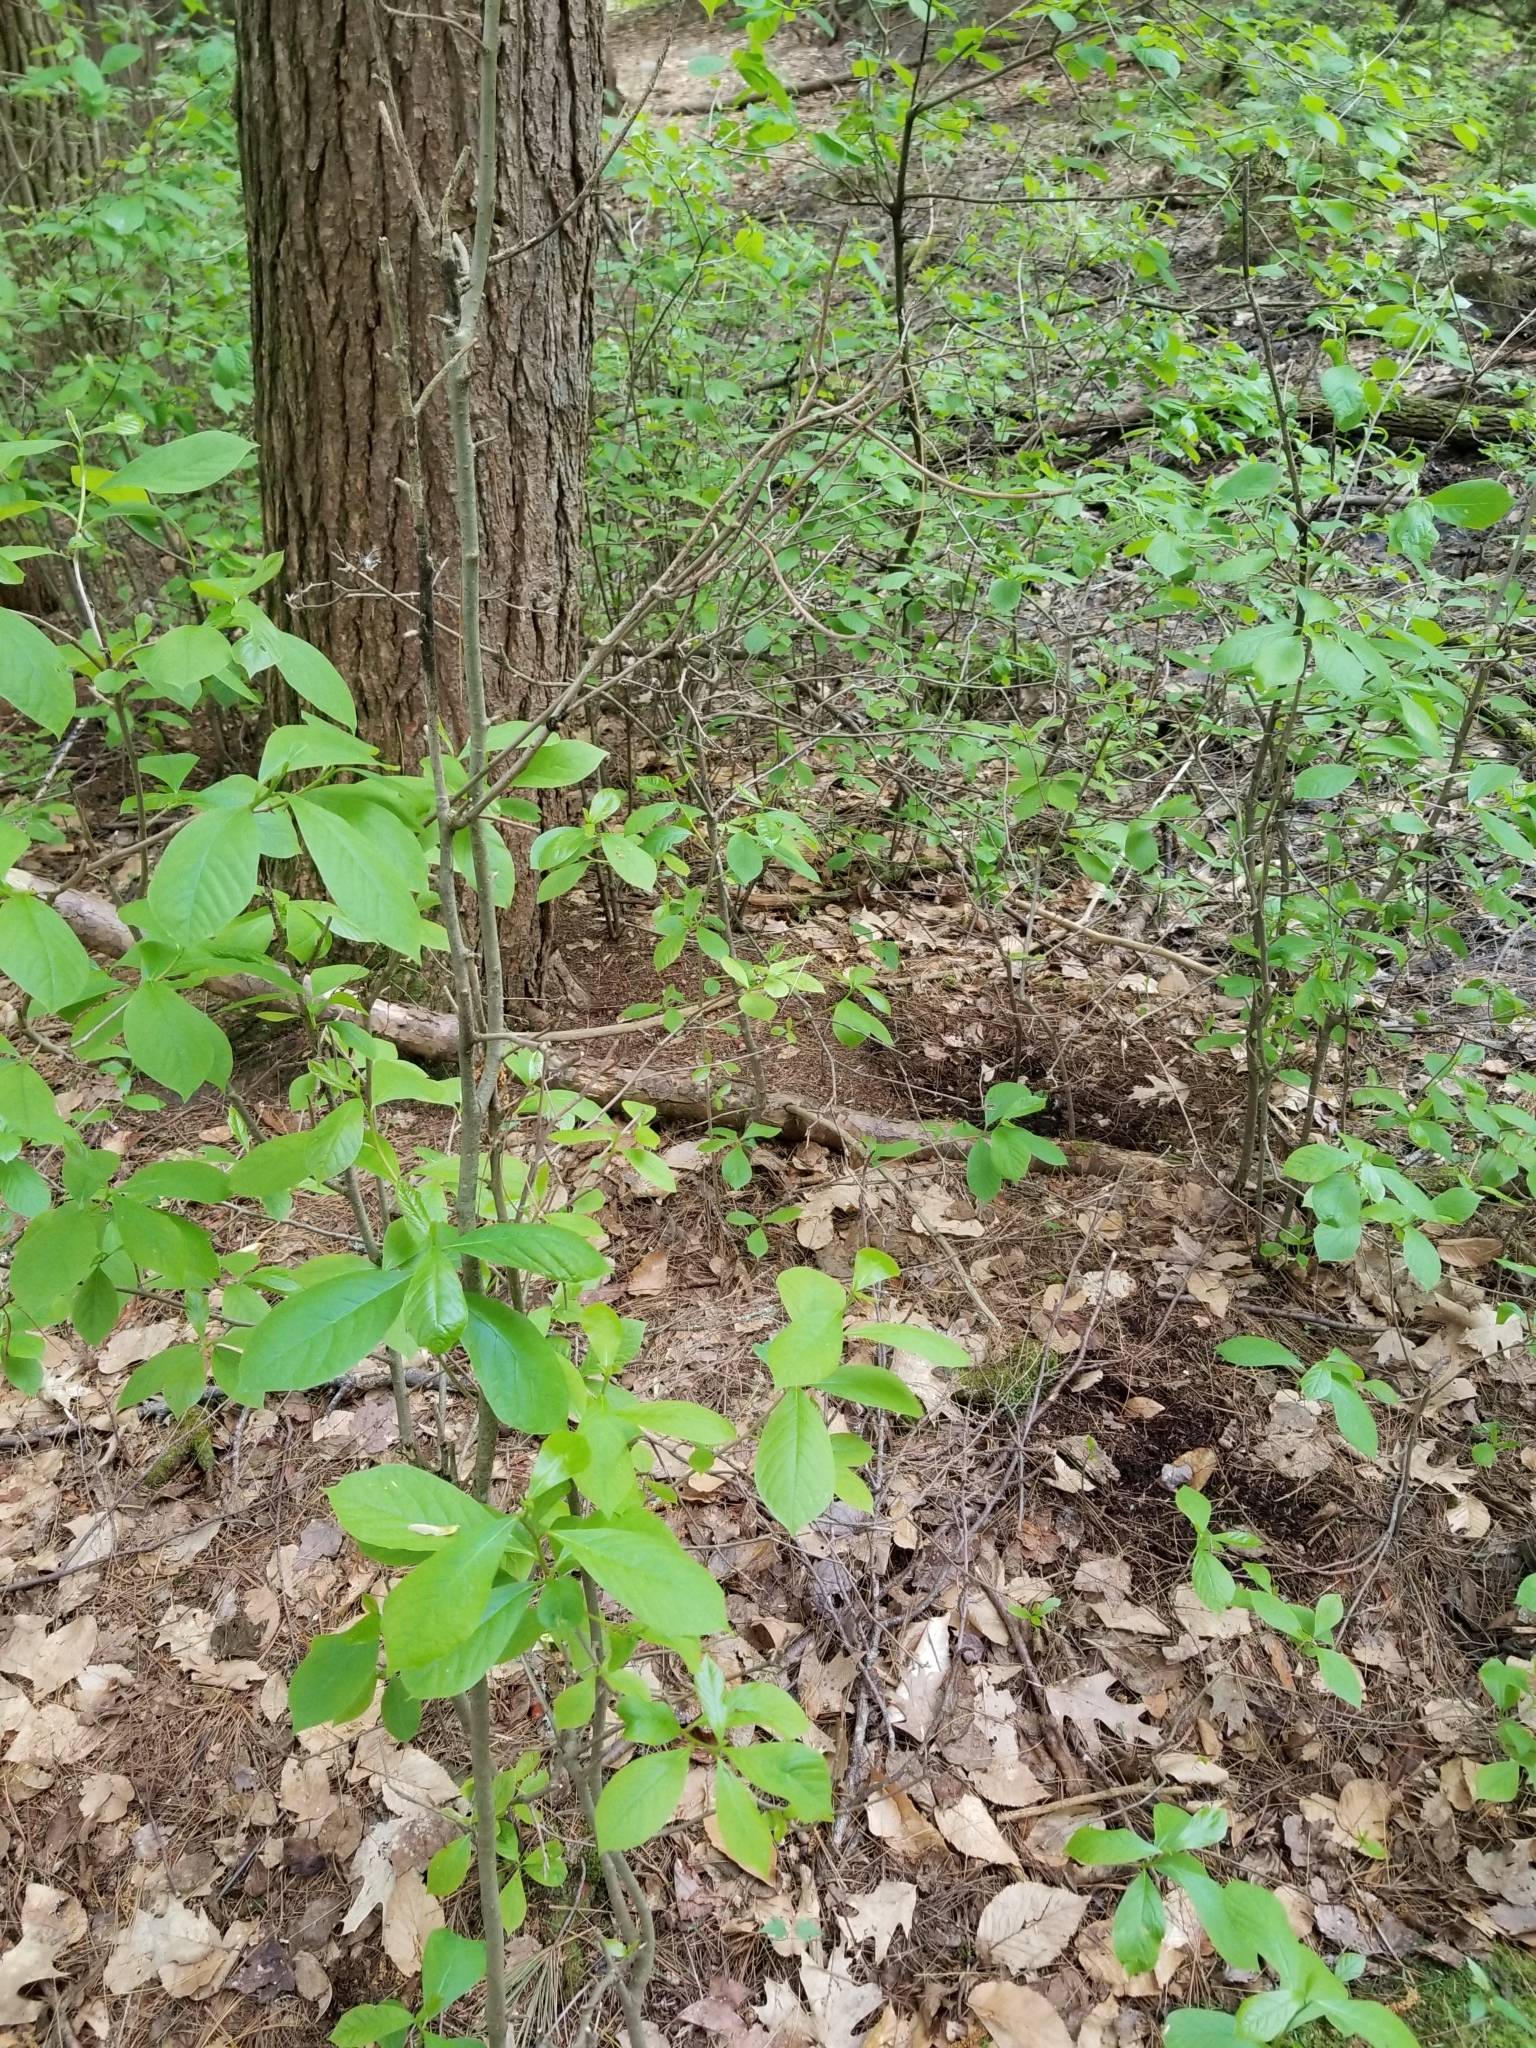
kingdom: Plantae
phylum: Tracheophyta
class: Magnoliopsida
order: Laurales
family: Lauraceae
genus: Lindera
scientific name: Lindera benzoin
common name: Spicebush
